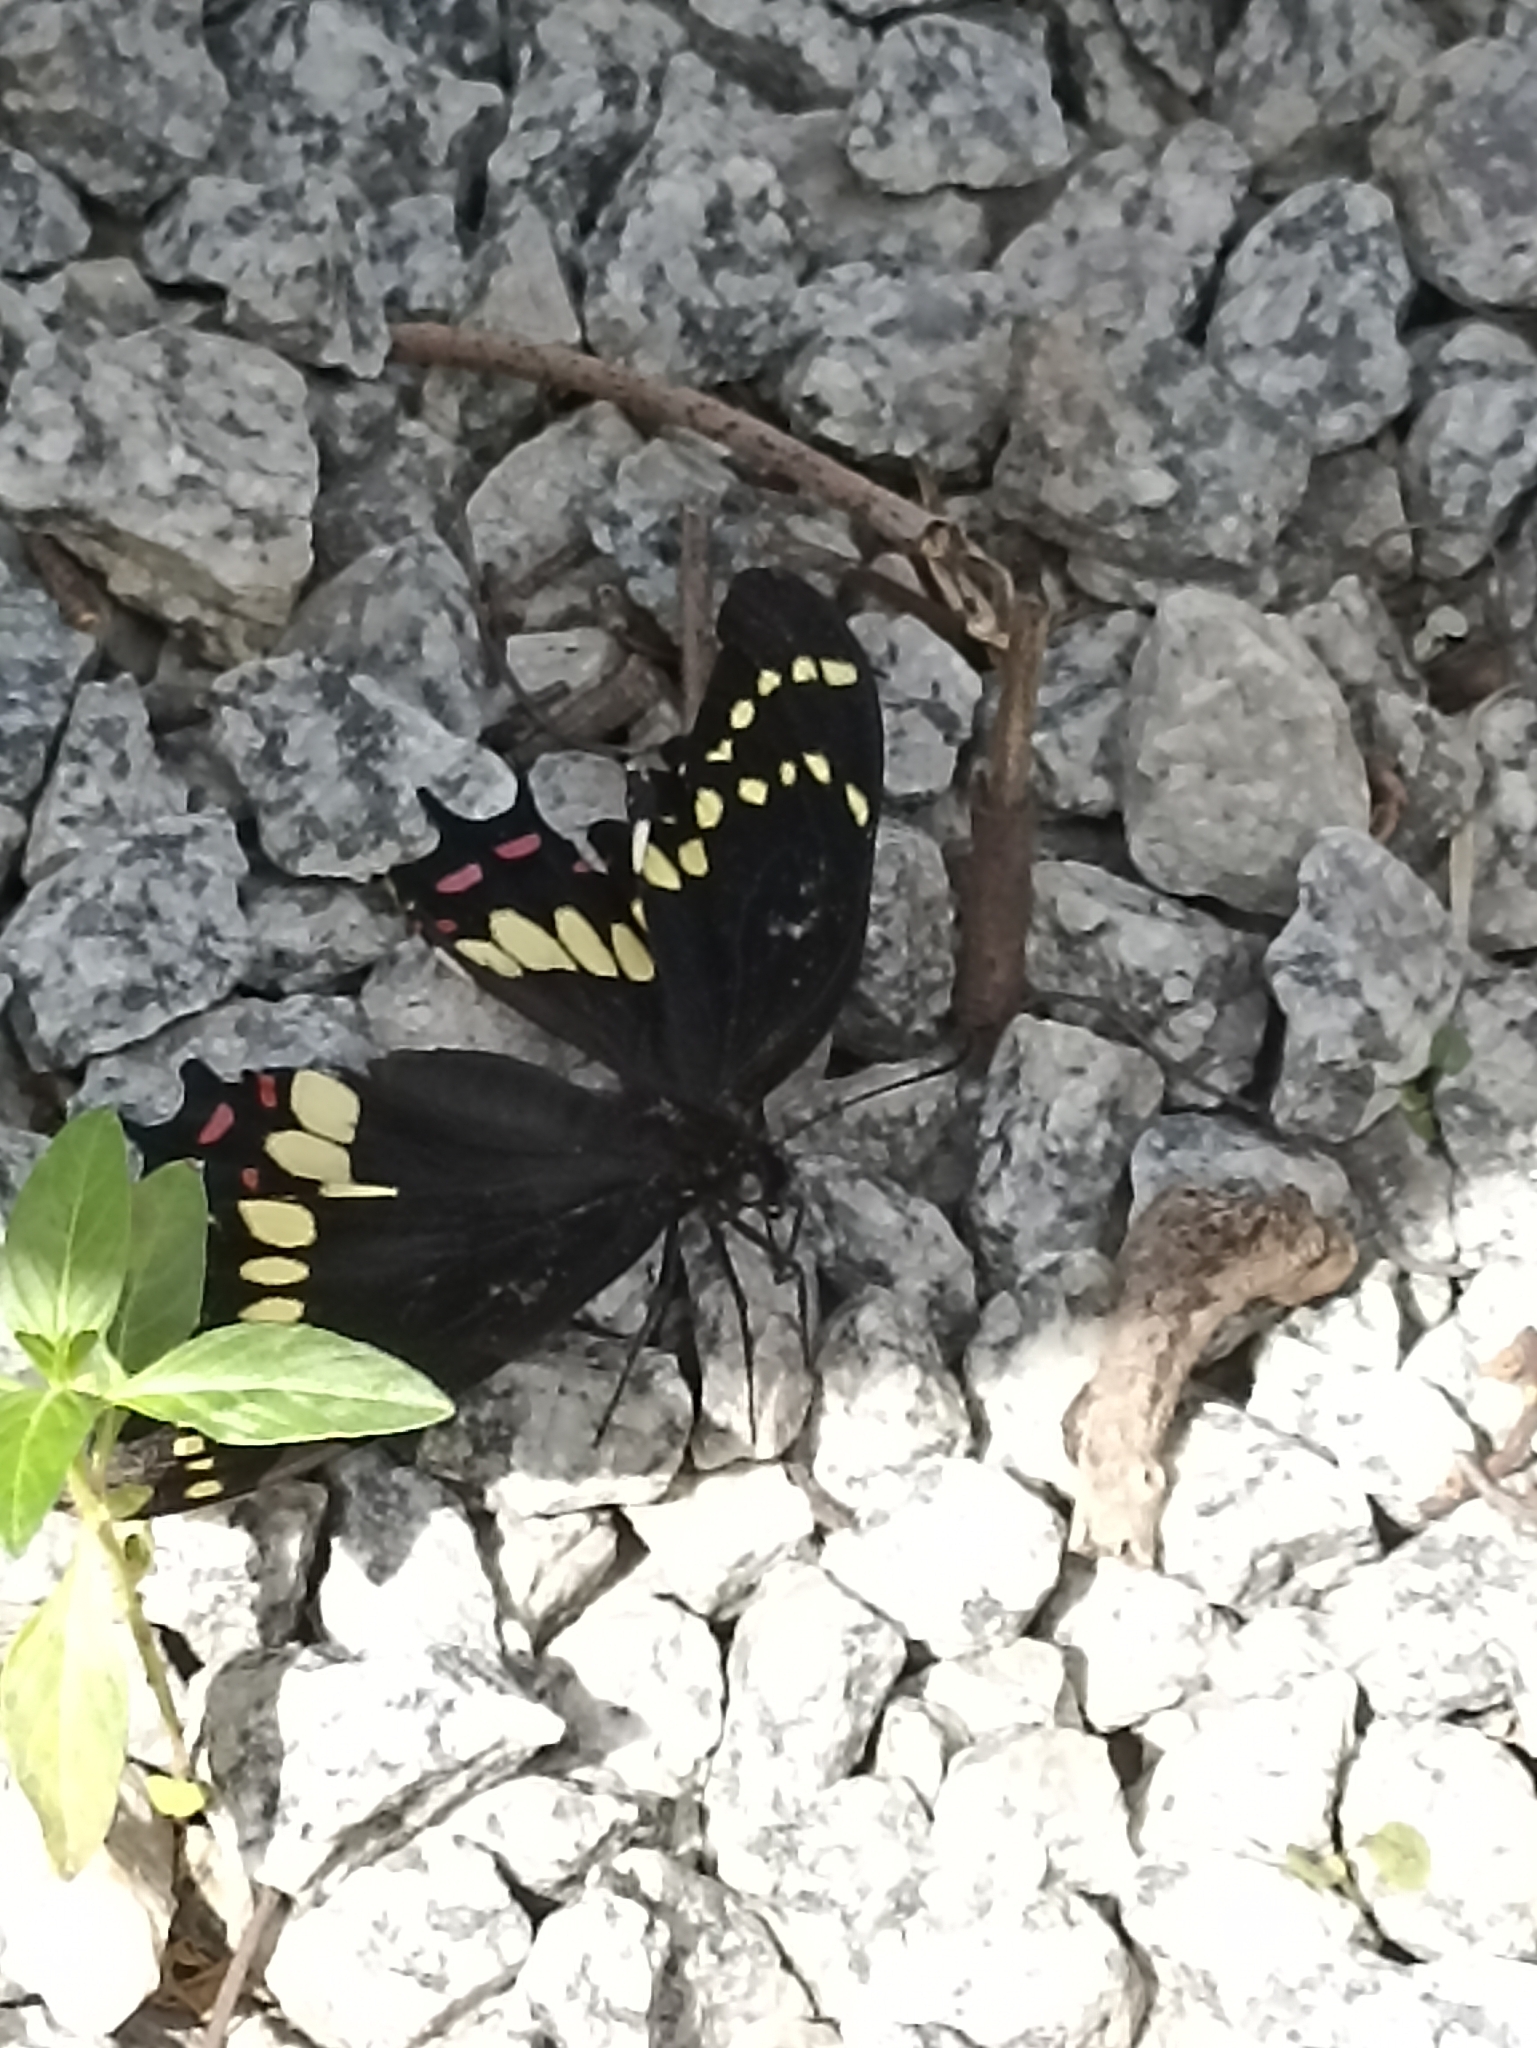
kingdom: Animalia
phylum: Arthropoda
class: Insecta
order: Lepidoptera
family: Papilionidae
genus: Papilio
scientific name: Papilio scamander
